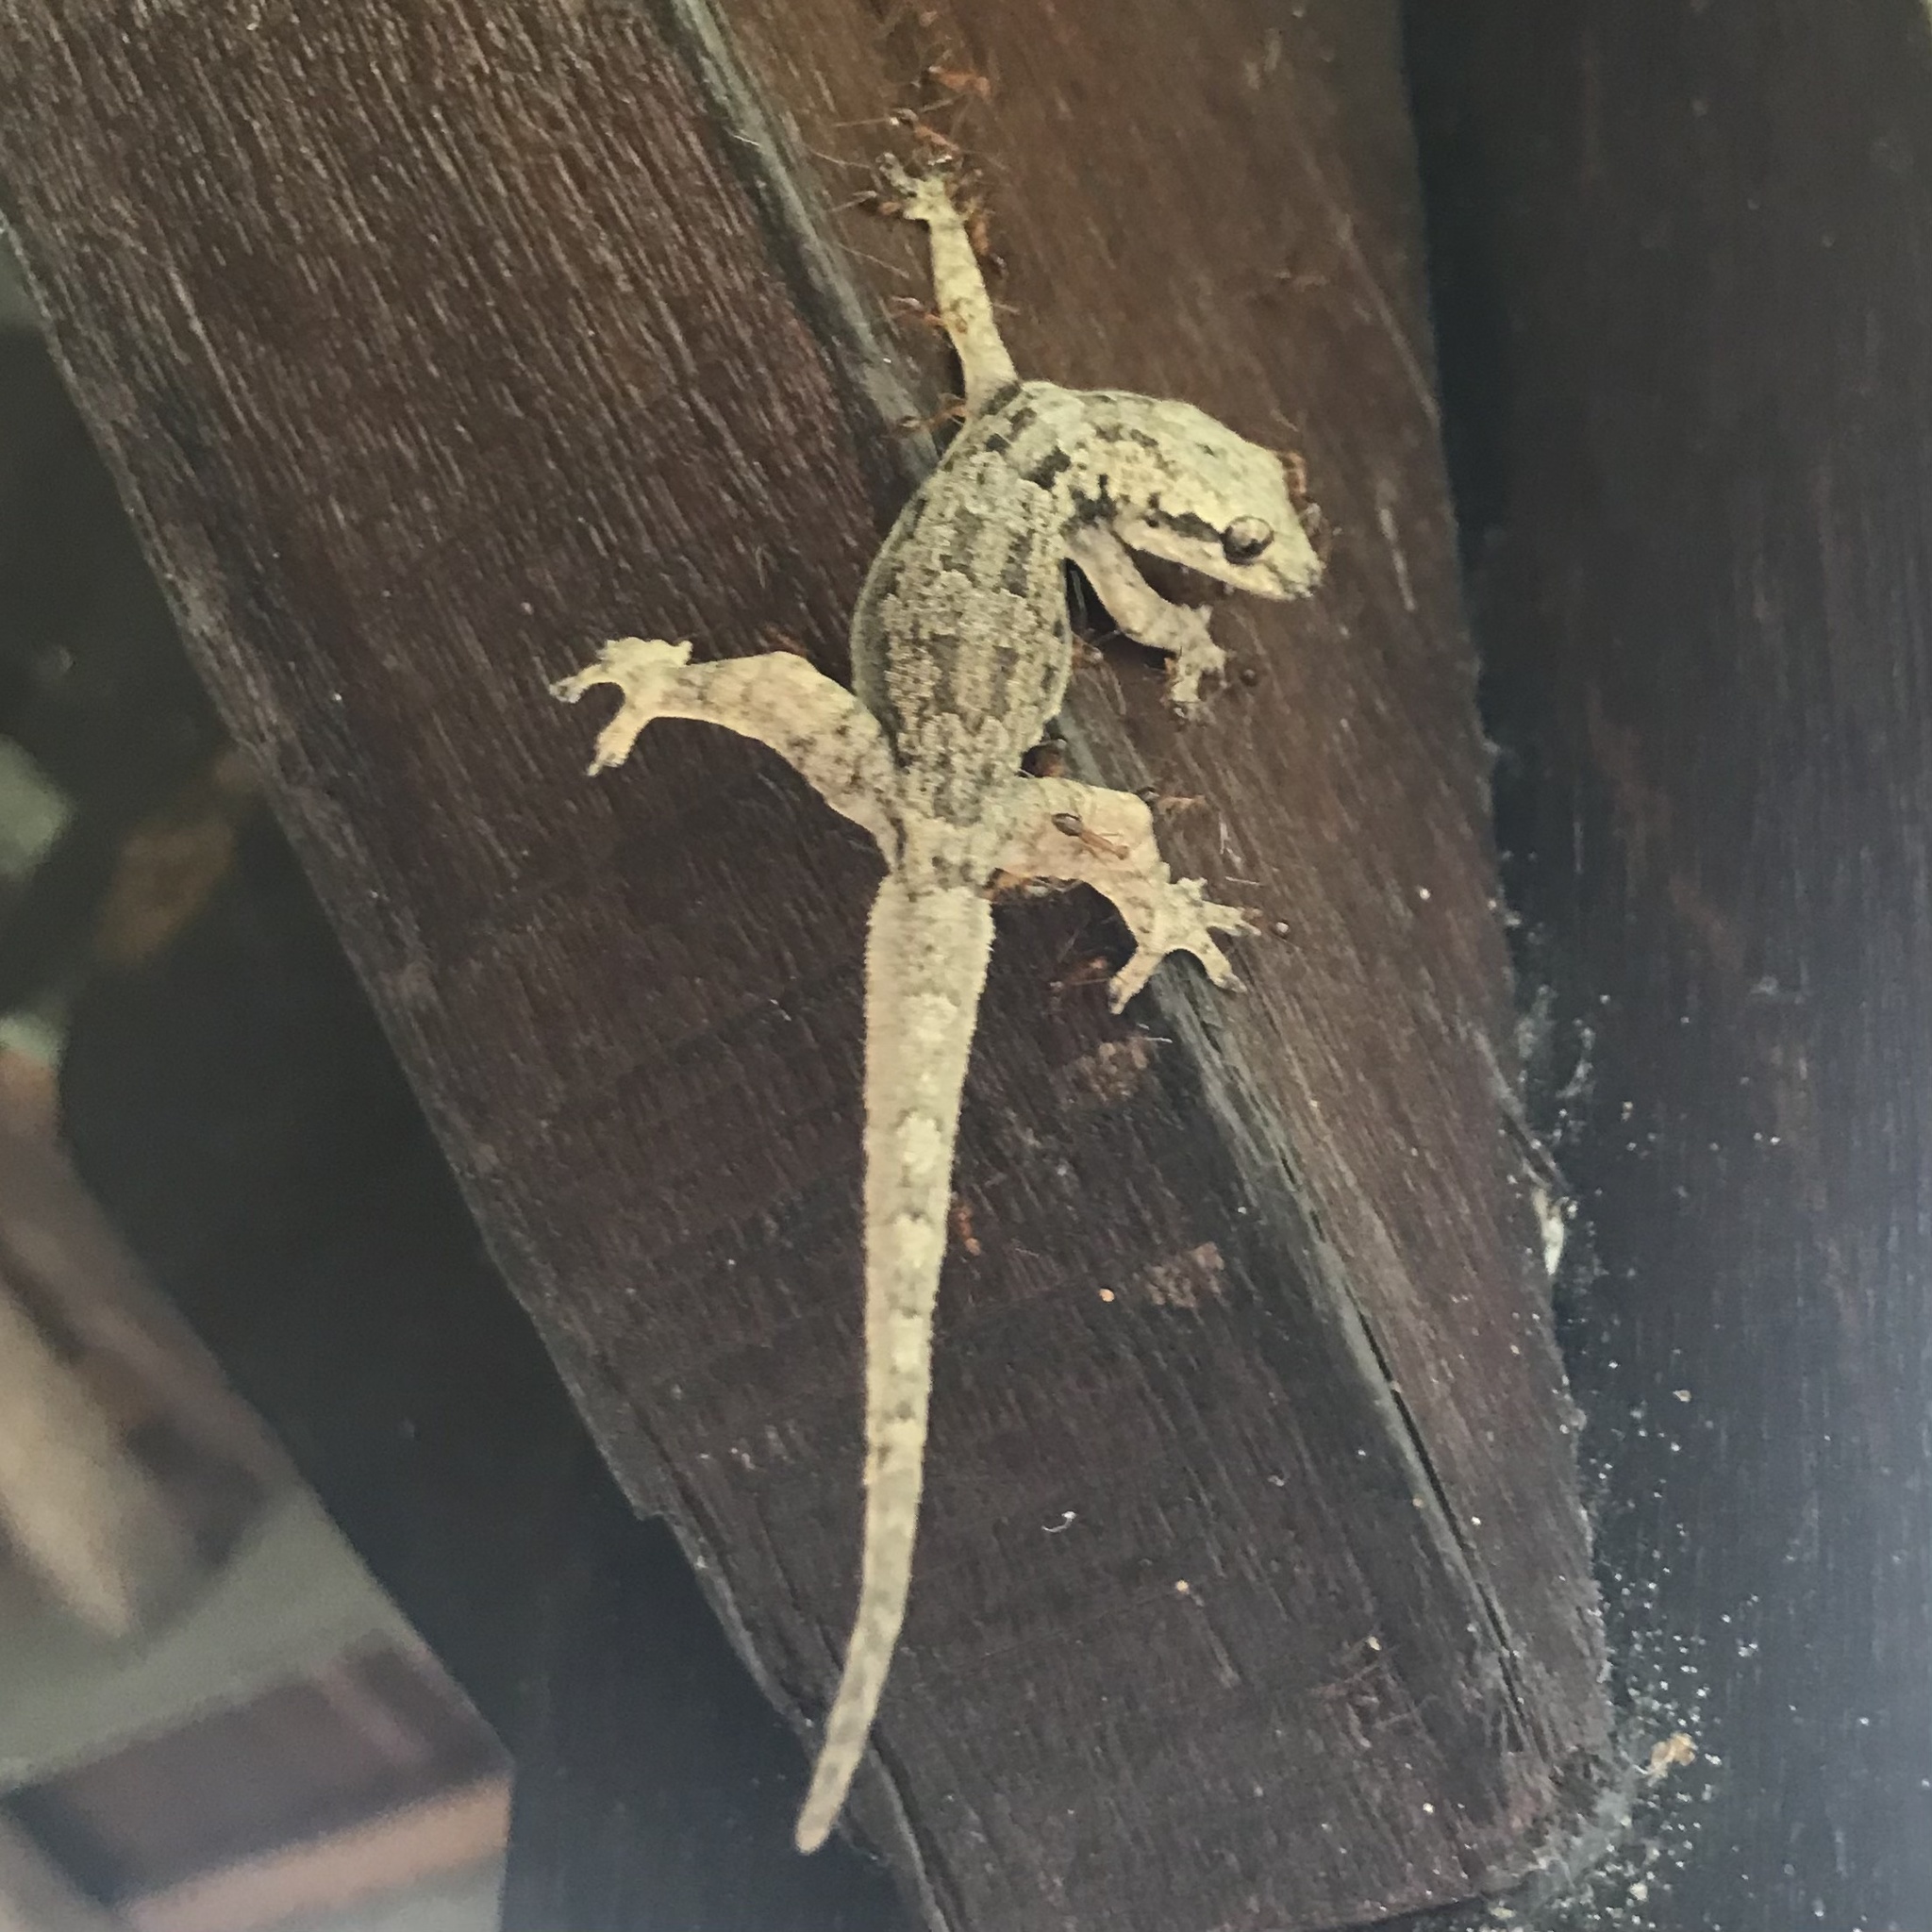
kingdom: Animalia
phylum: Chordata
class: Squamata
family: Gekkonidae
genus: Hemidactylus
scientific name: Hemidactylus platyurus
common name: Flat-tailed house gecko
